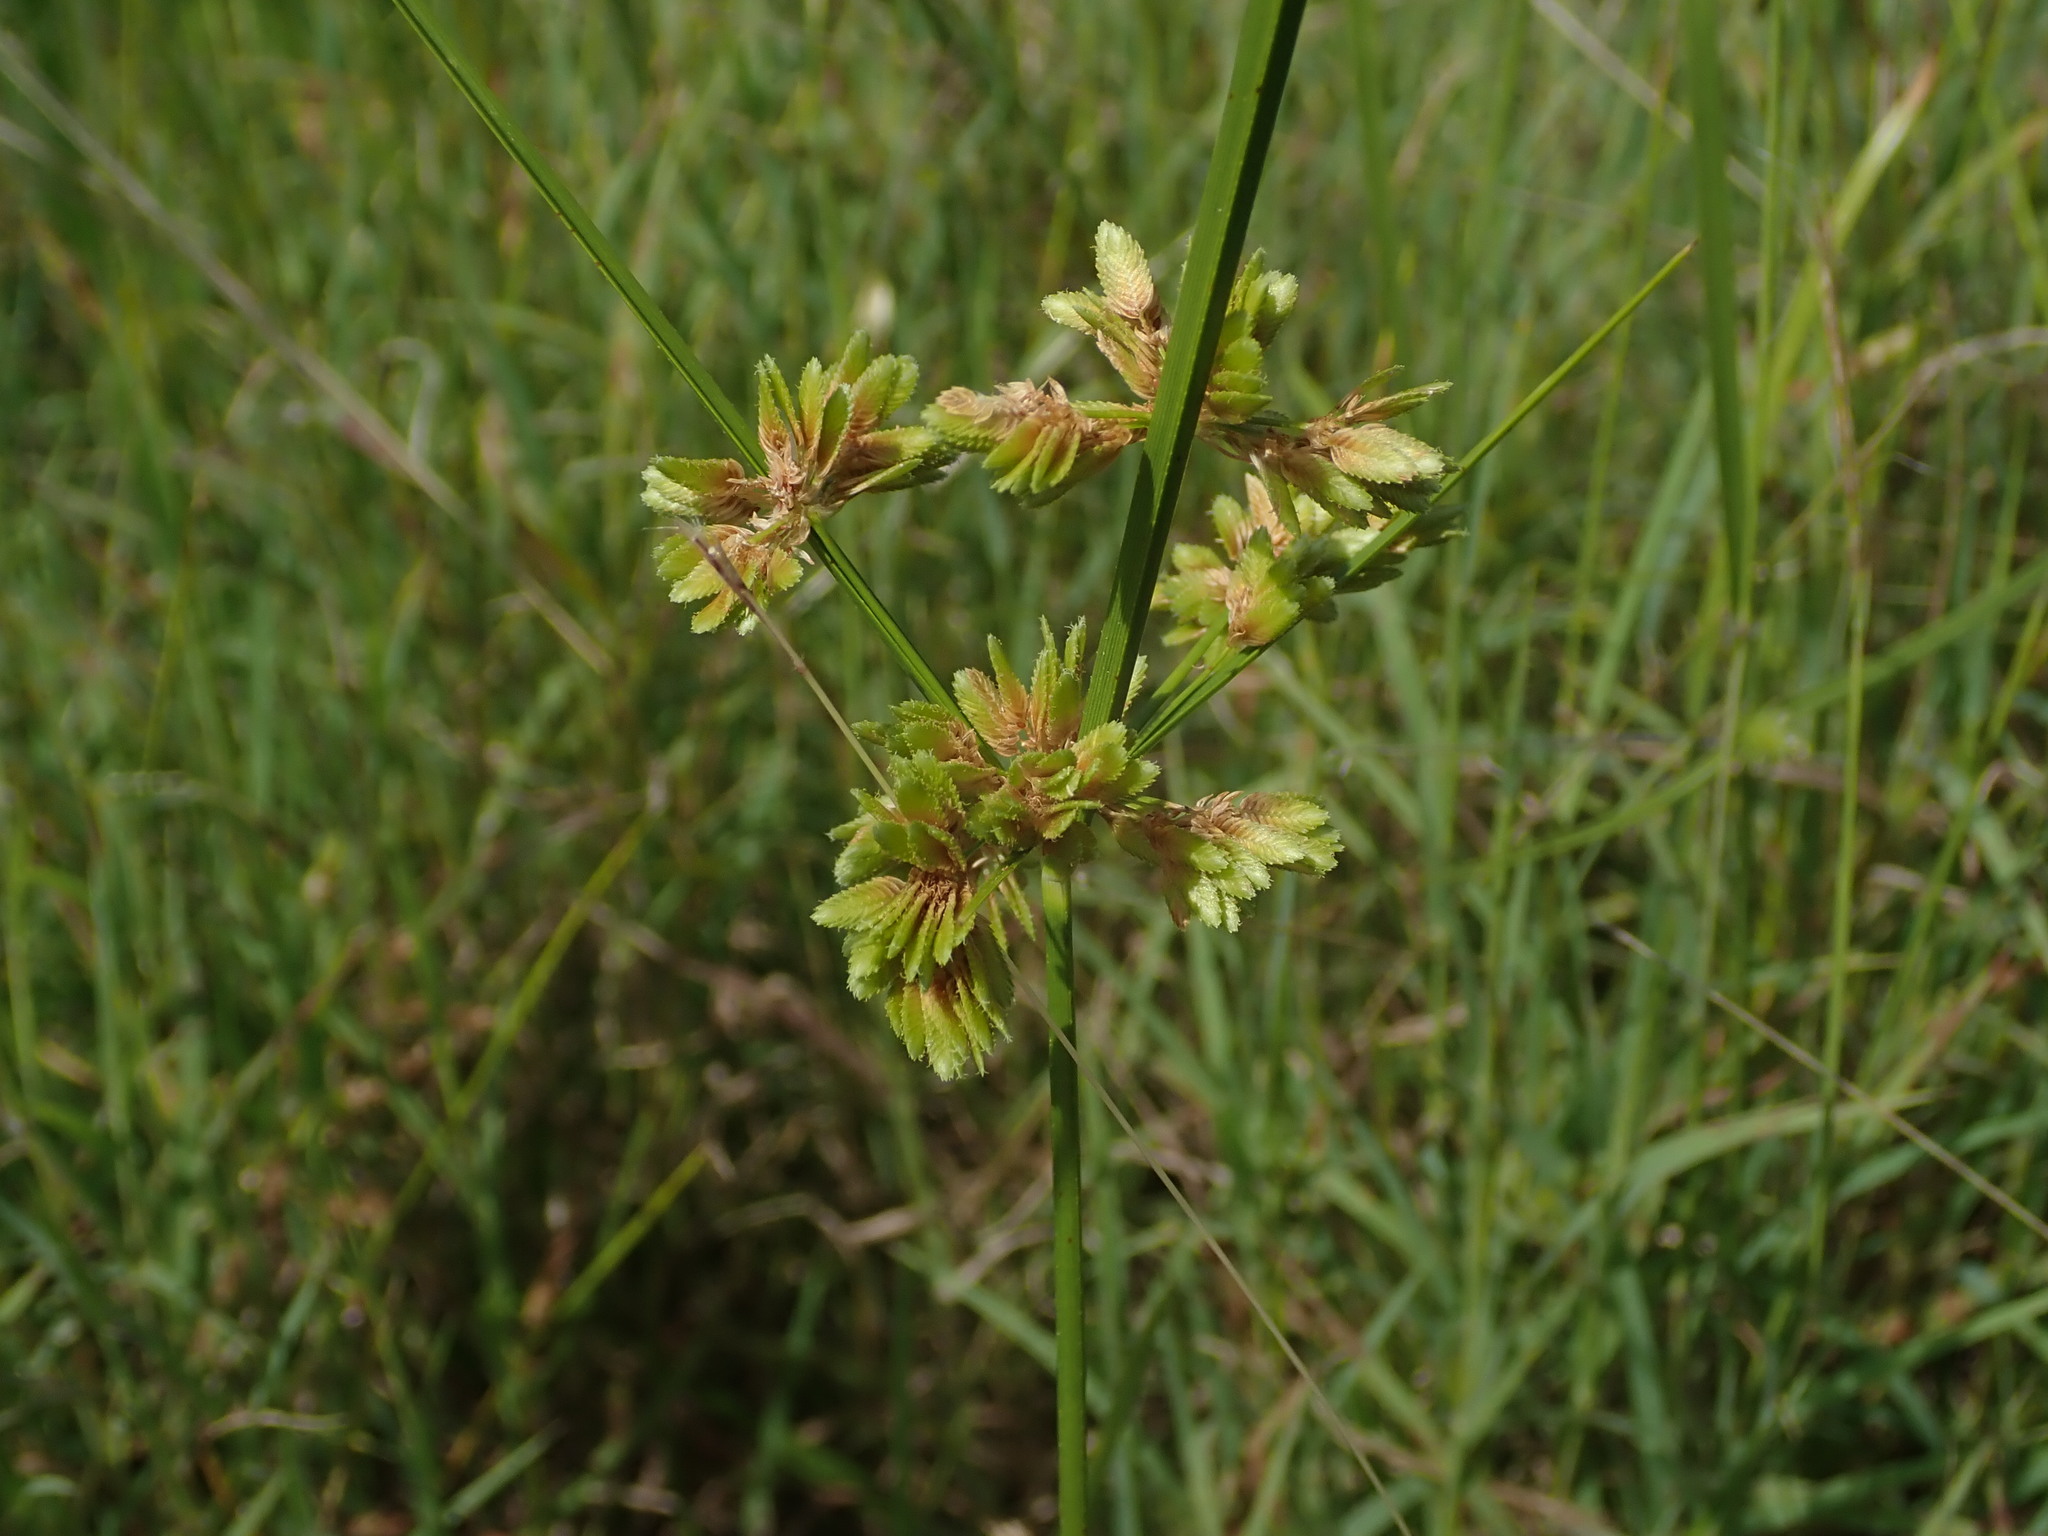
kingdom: Plantae
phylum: Tracheophyta
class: Liliopsida
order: Poales
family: Cyperaceae
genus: Cyperus
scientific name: Cyperus surinamensis
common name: Tropical flat sedge
